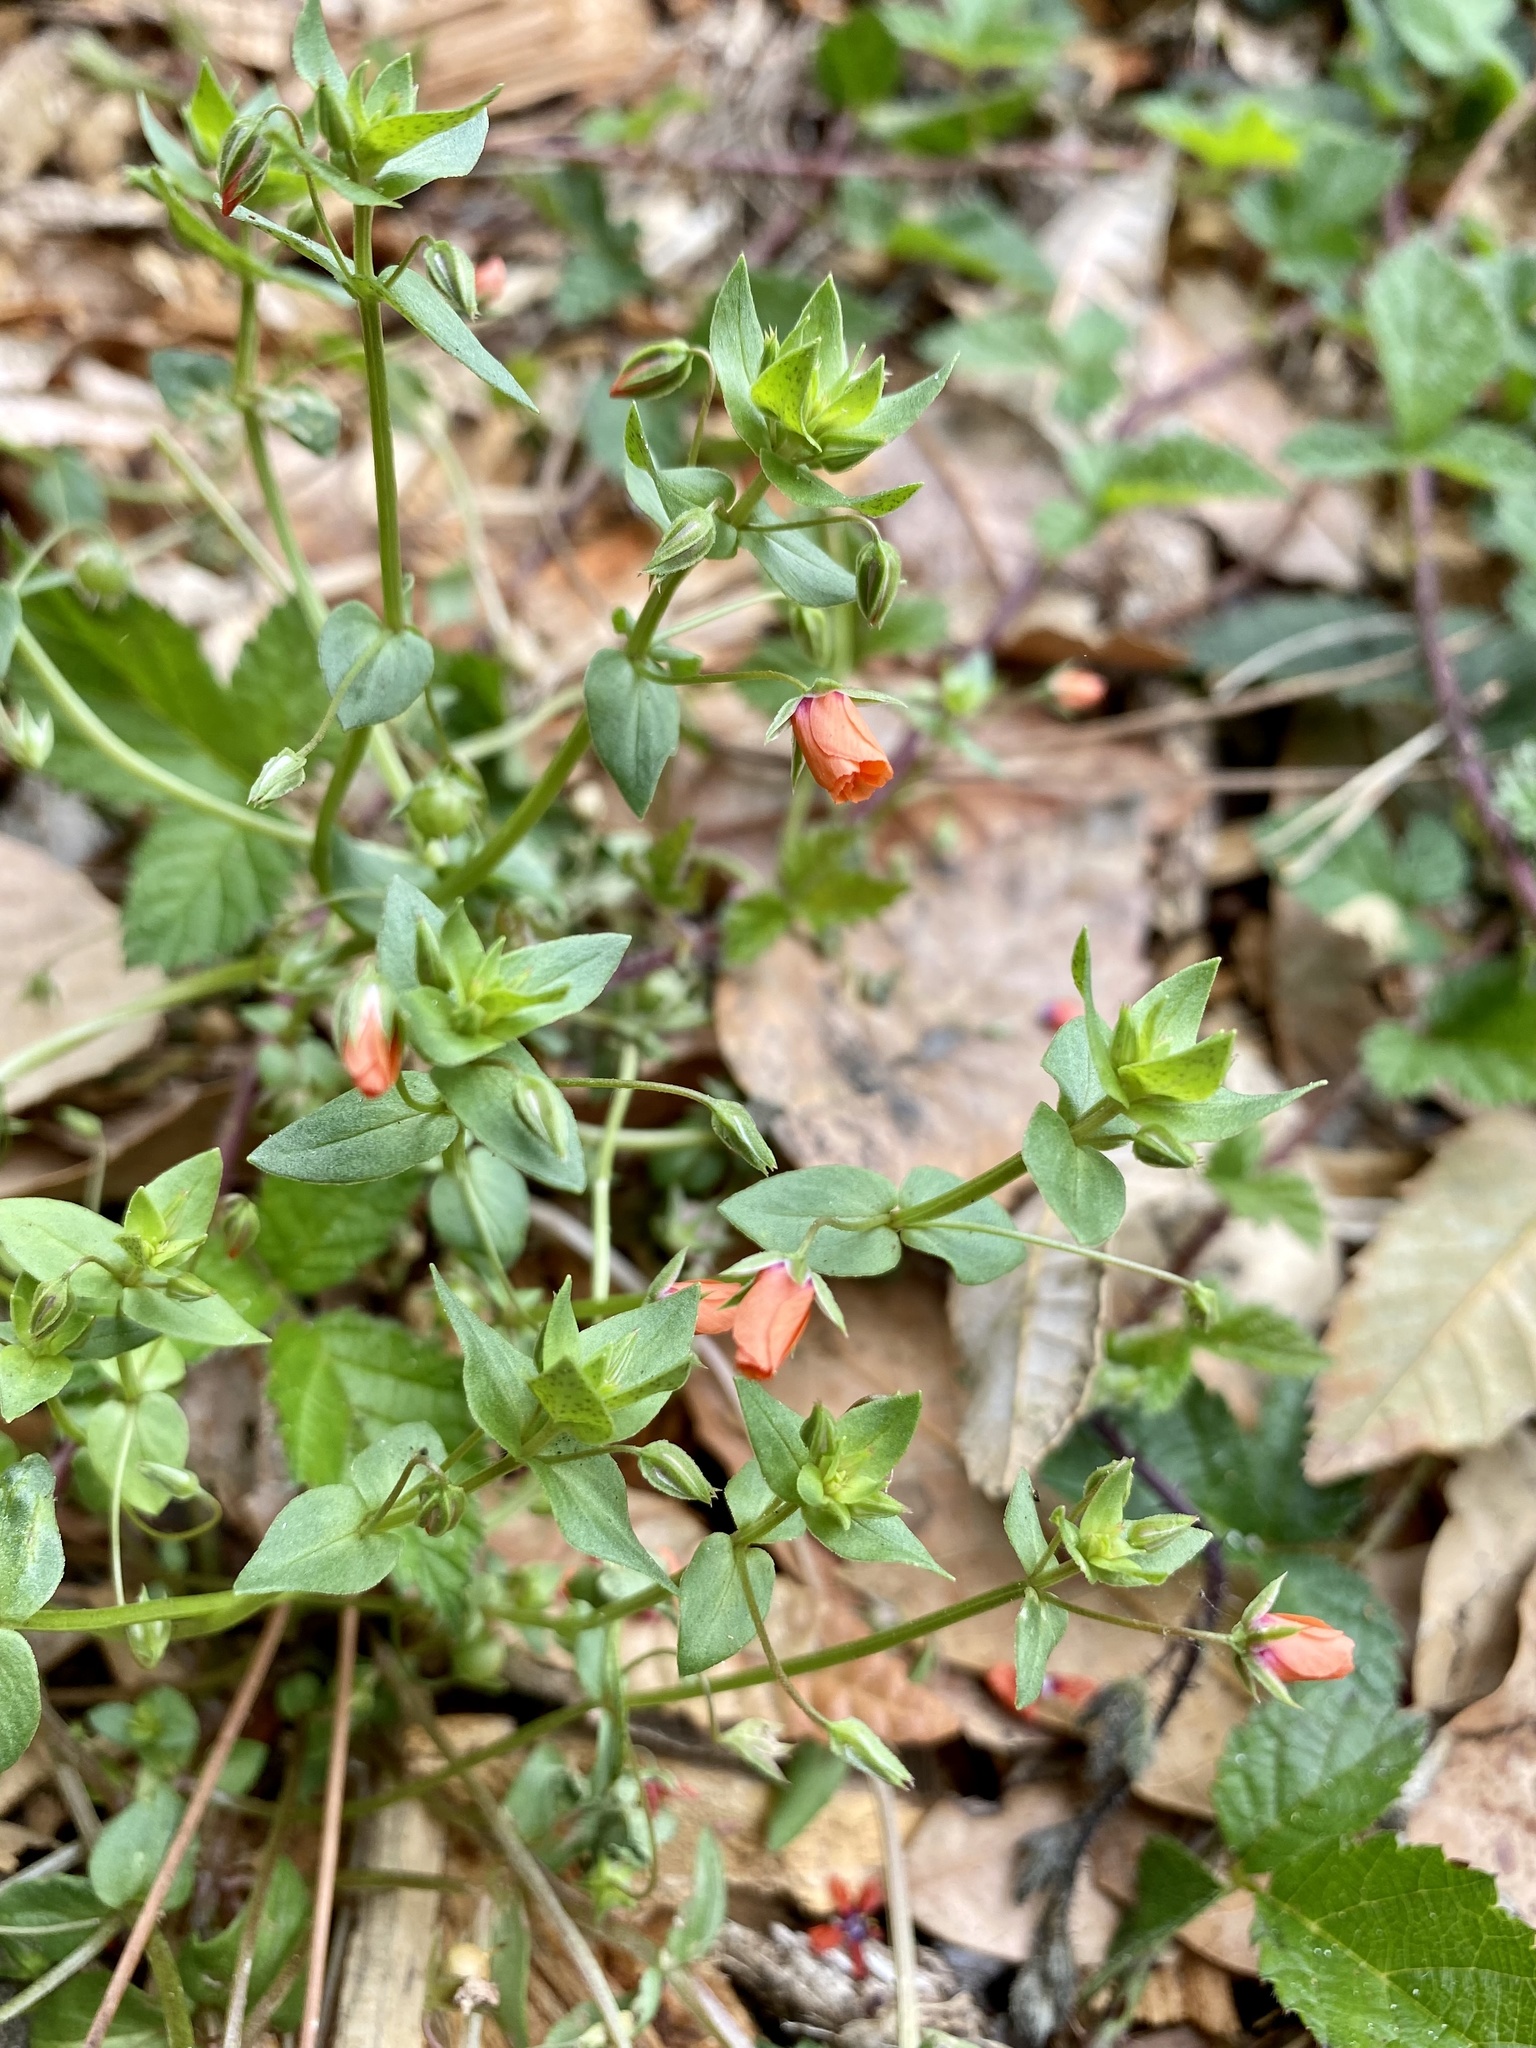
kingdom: Plantae
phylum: Tracheophyta
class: Magnoliopsida
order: Ericales
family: Primulaceae
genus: Lysimachia
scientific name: Lysimachia arvensis
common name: Scarlet pimpernel
